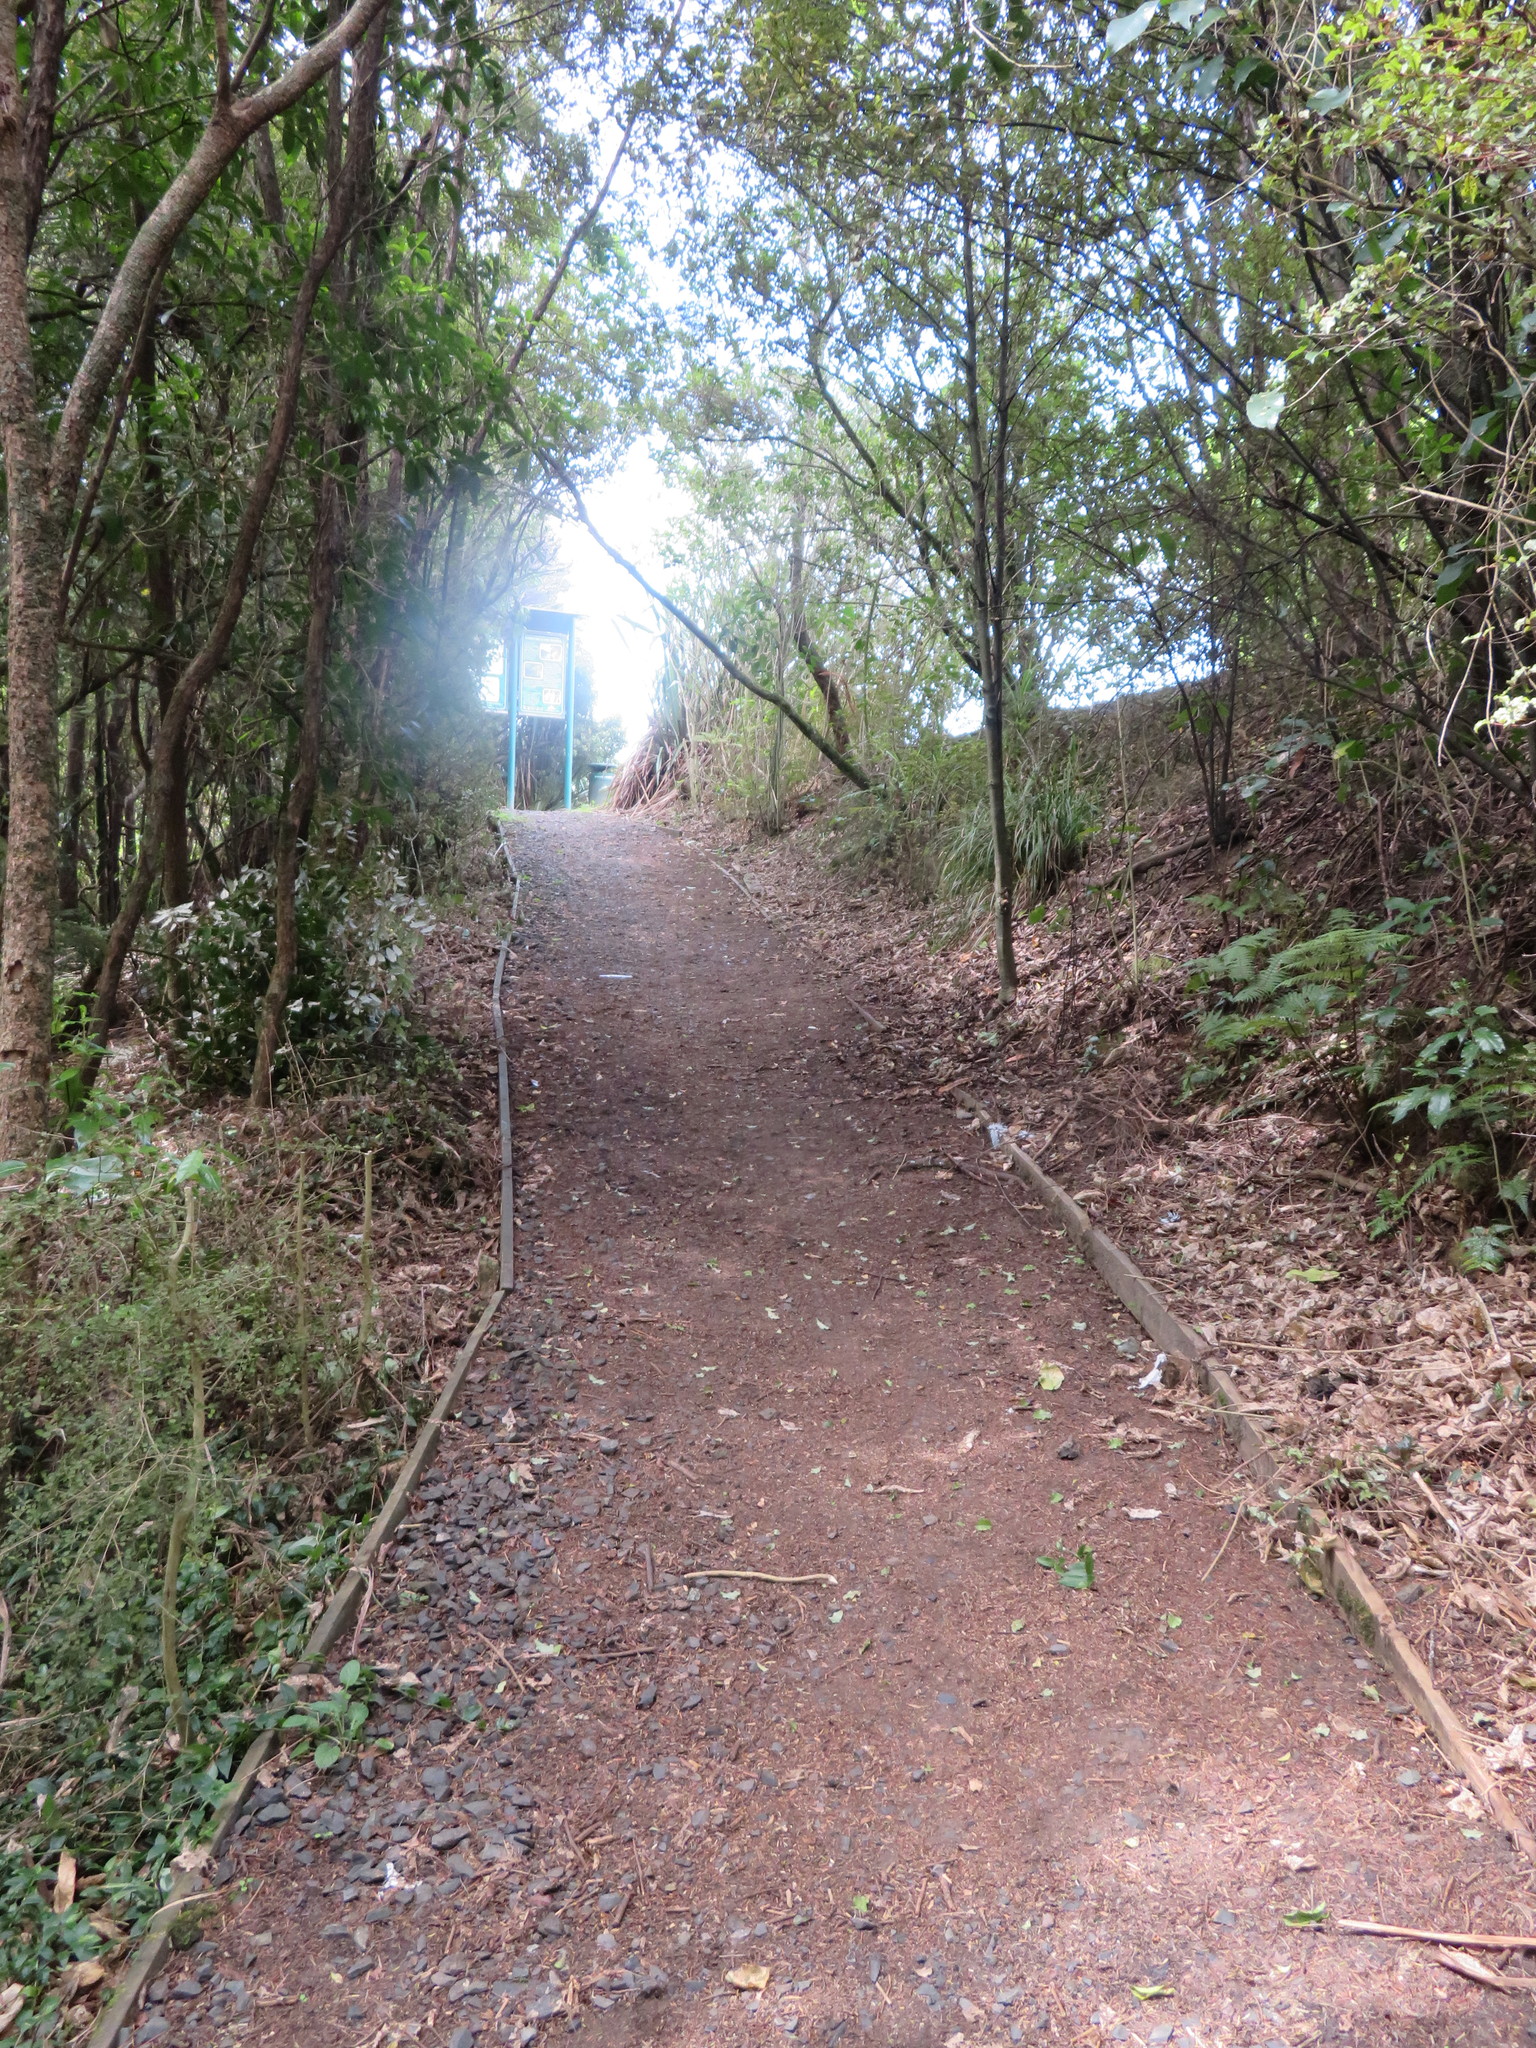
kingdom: Plantae
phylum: Tracheophyta
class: Liliopsida
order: Commelinales
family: Commelinaceae
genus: Tradescantia
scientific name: Tradescantia fluminensis
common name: Wandering-jew
